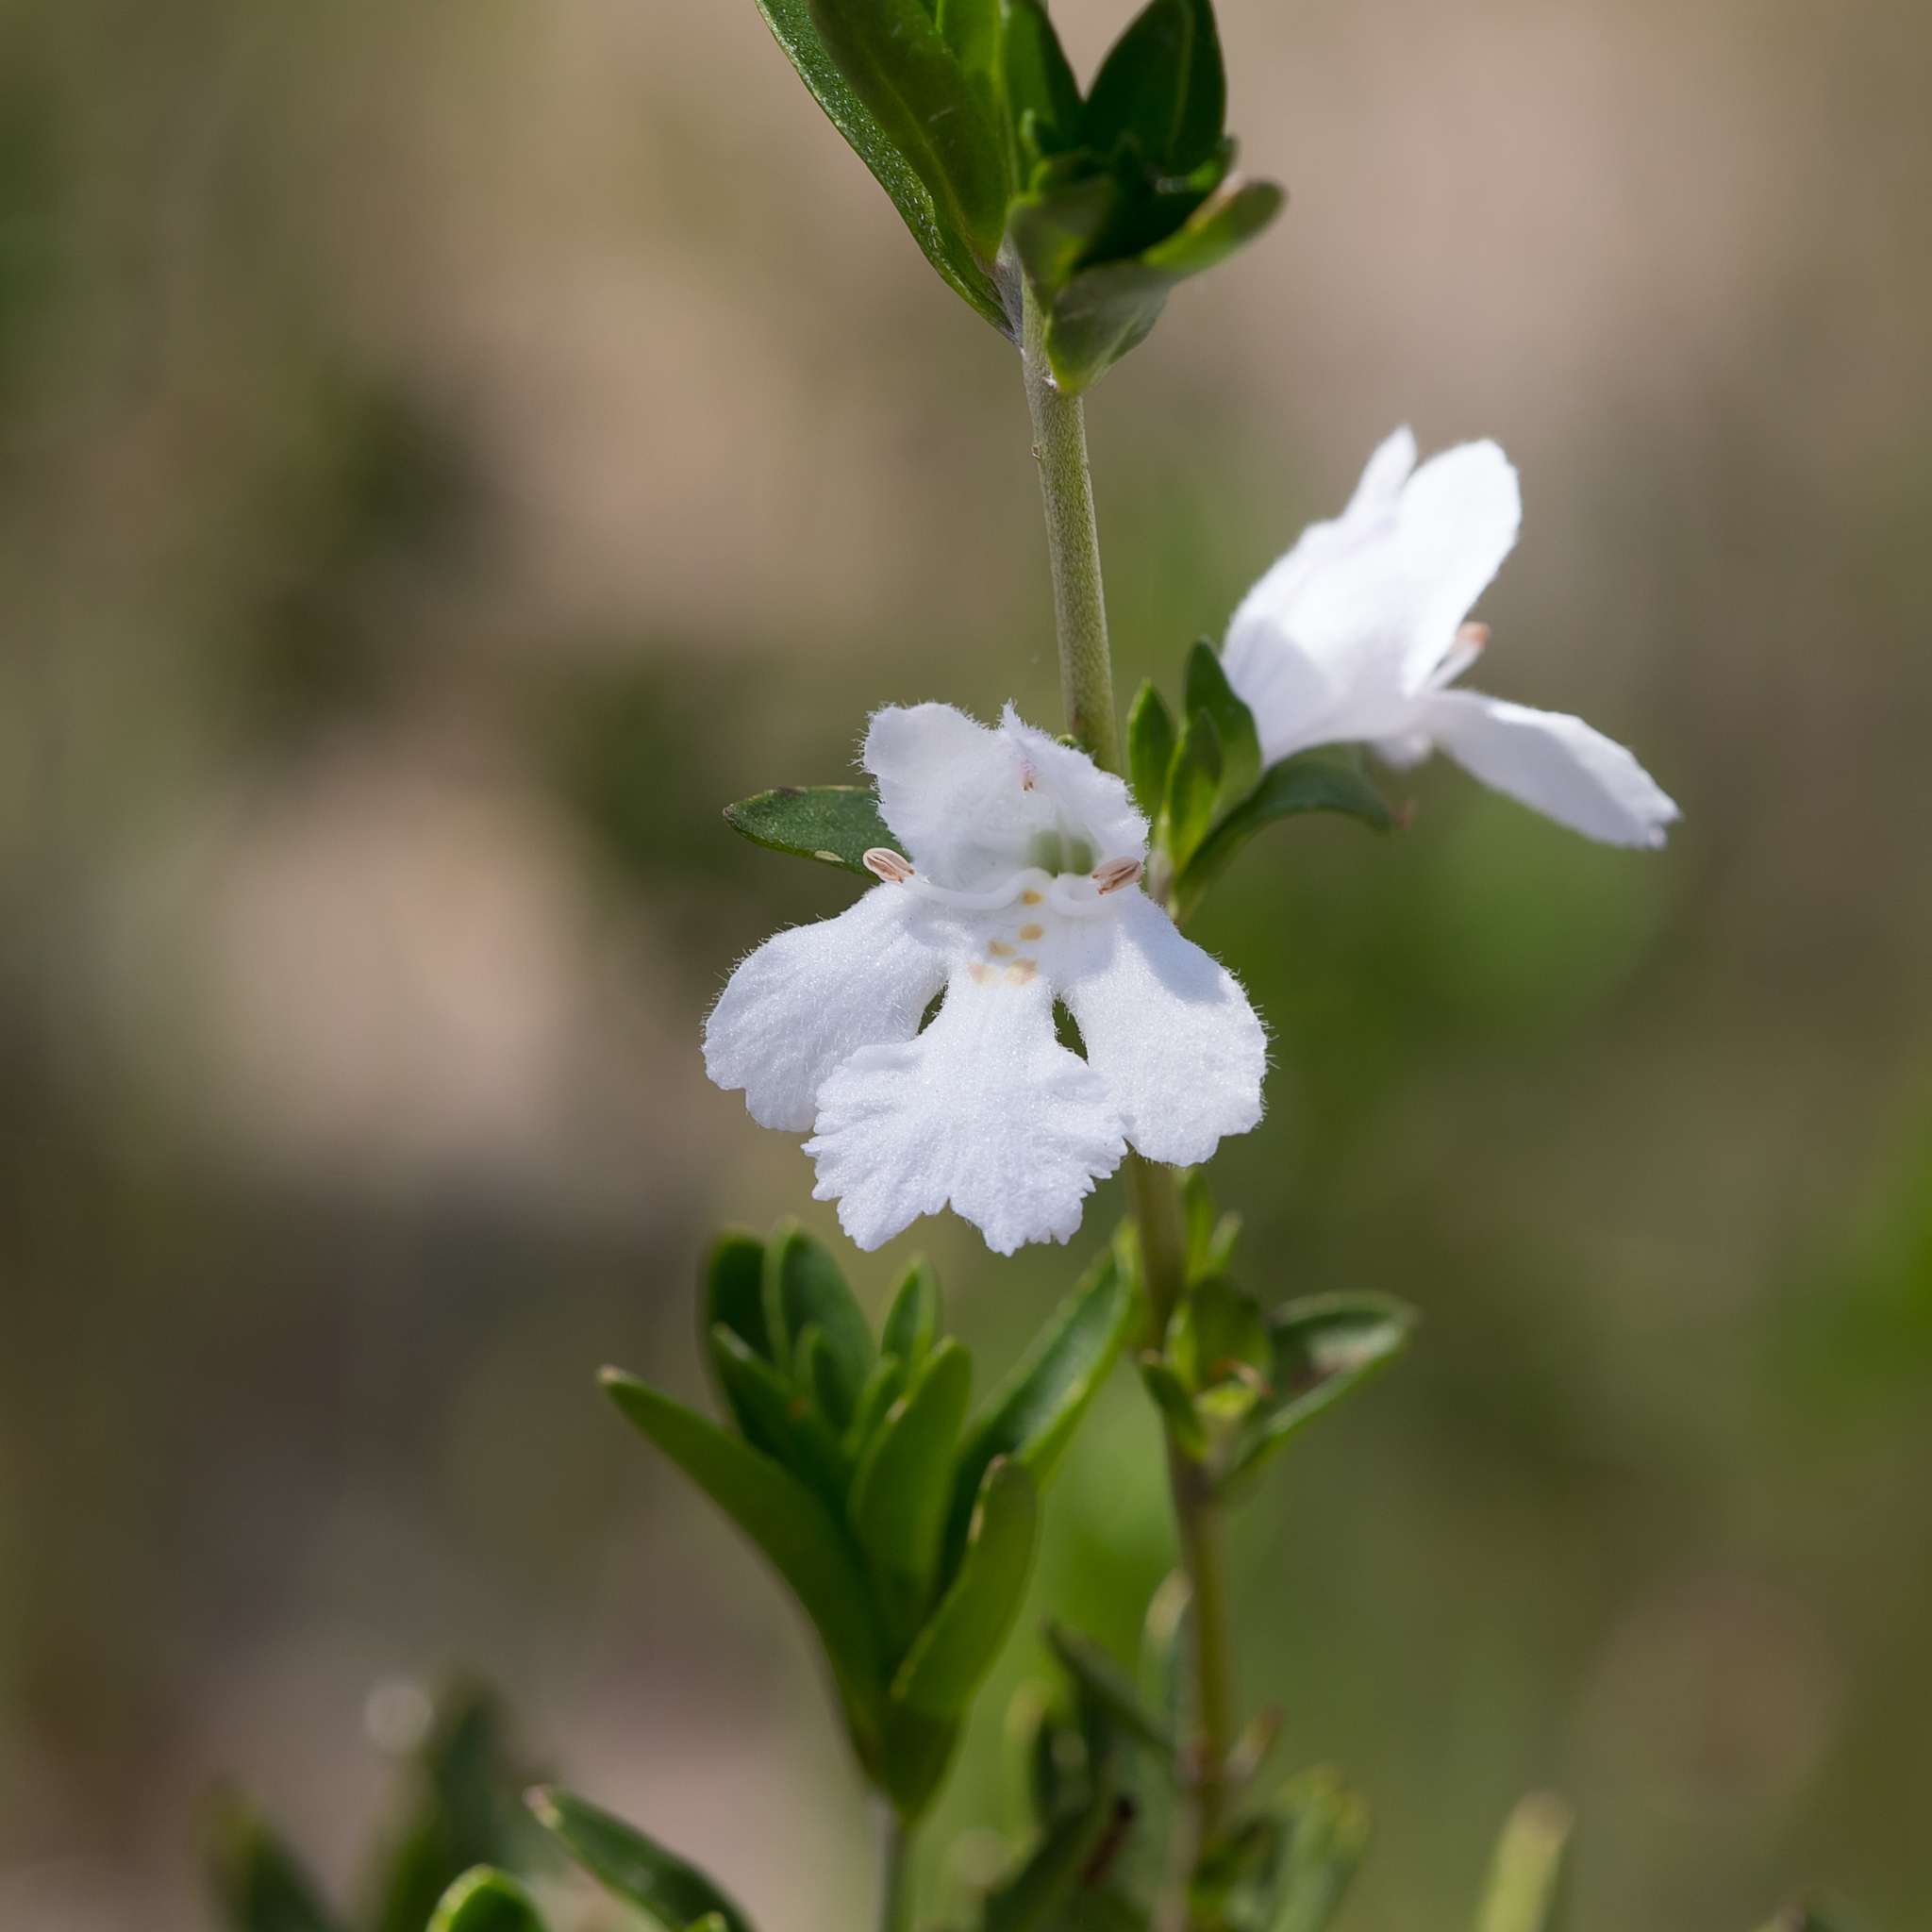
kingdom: Plantae
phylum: Tracheophyta
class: Magnoliopsida
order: Lamiales
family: Lamiaceae
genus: Prostanthera
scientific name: Prostanthera behriana
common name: Downy mintbush
